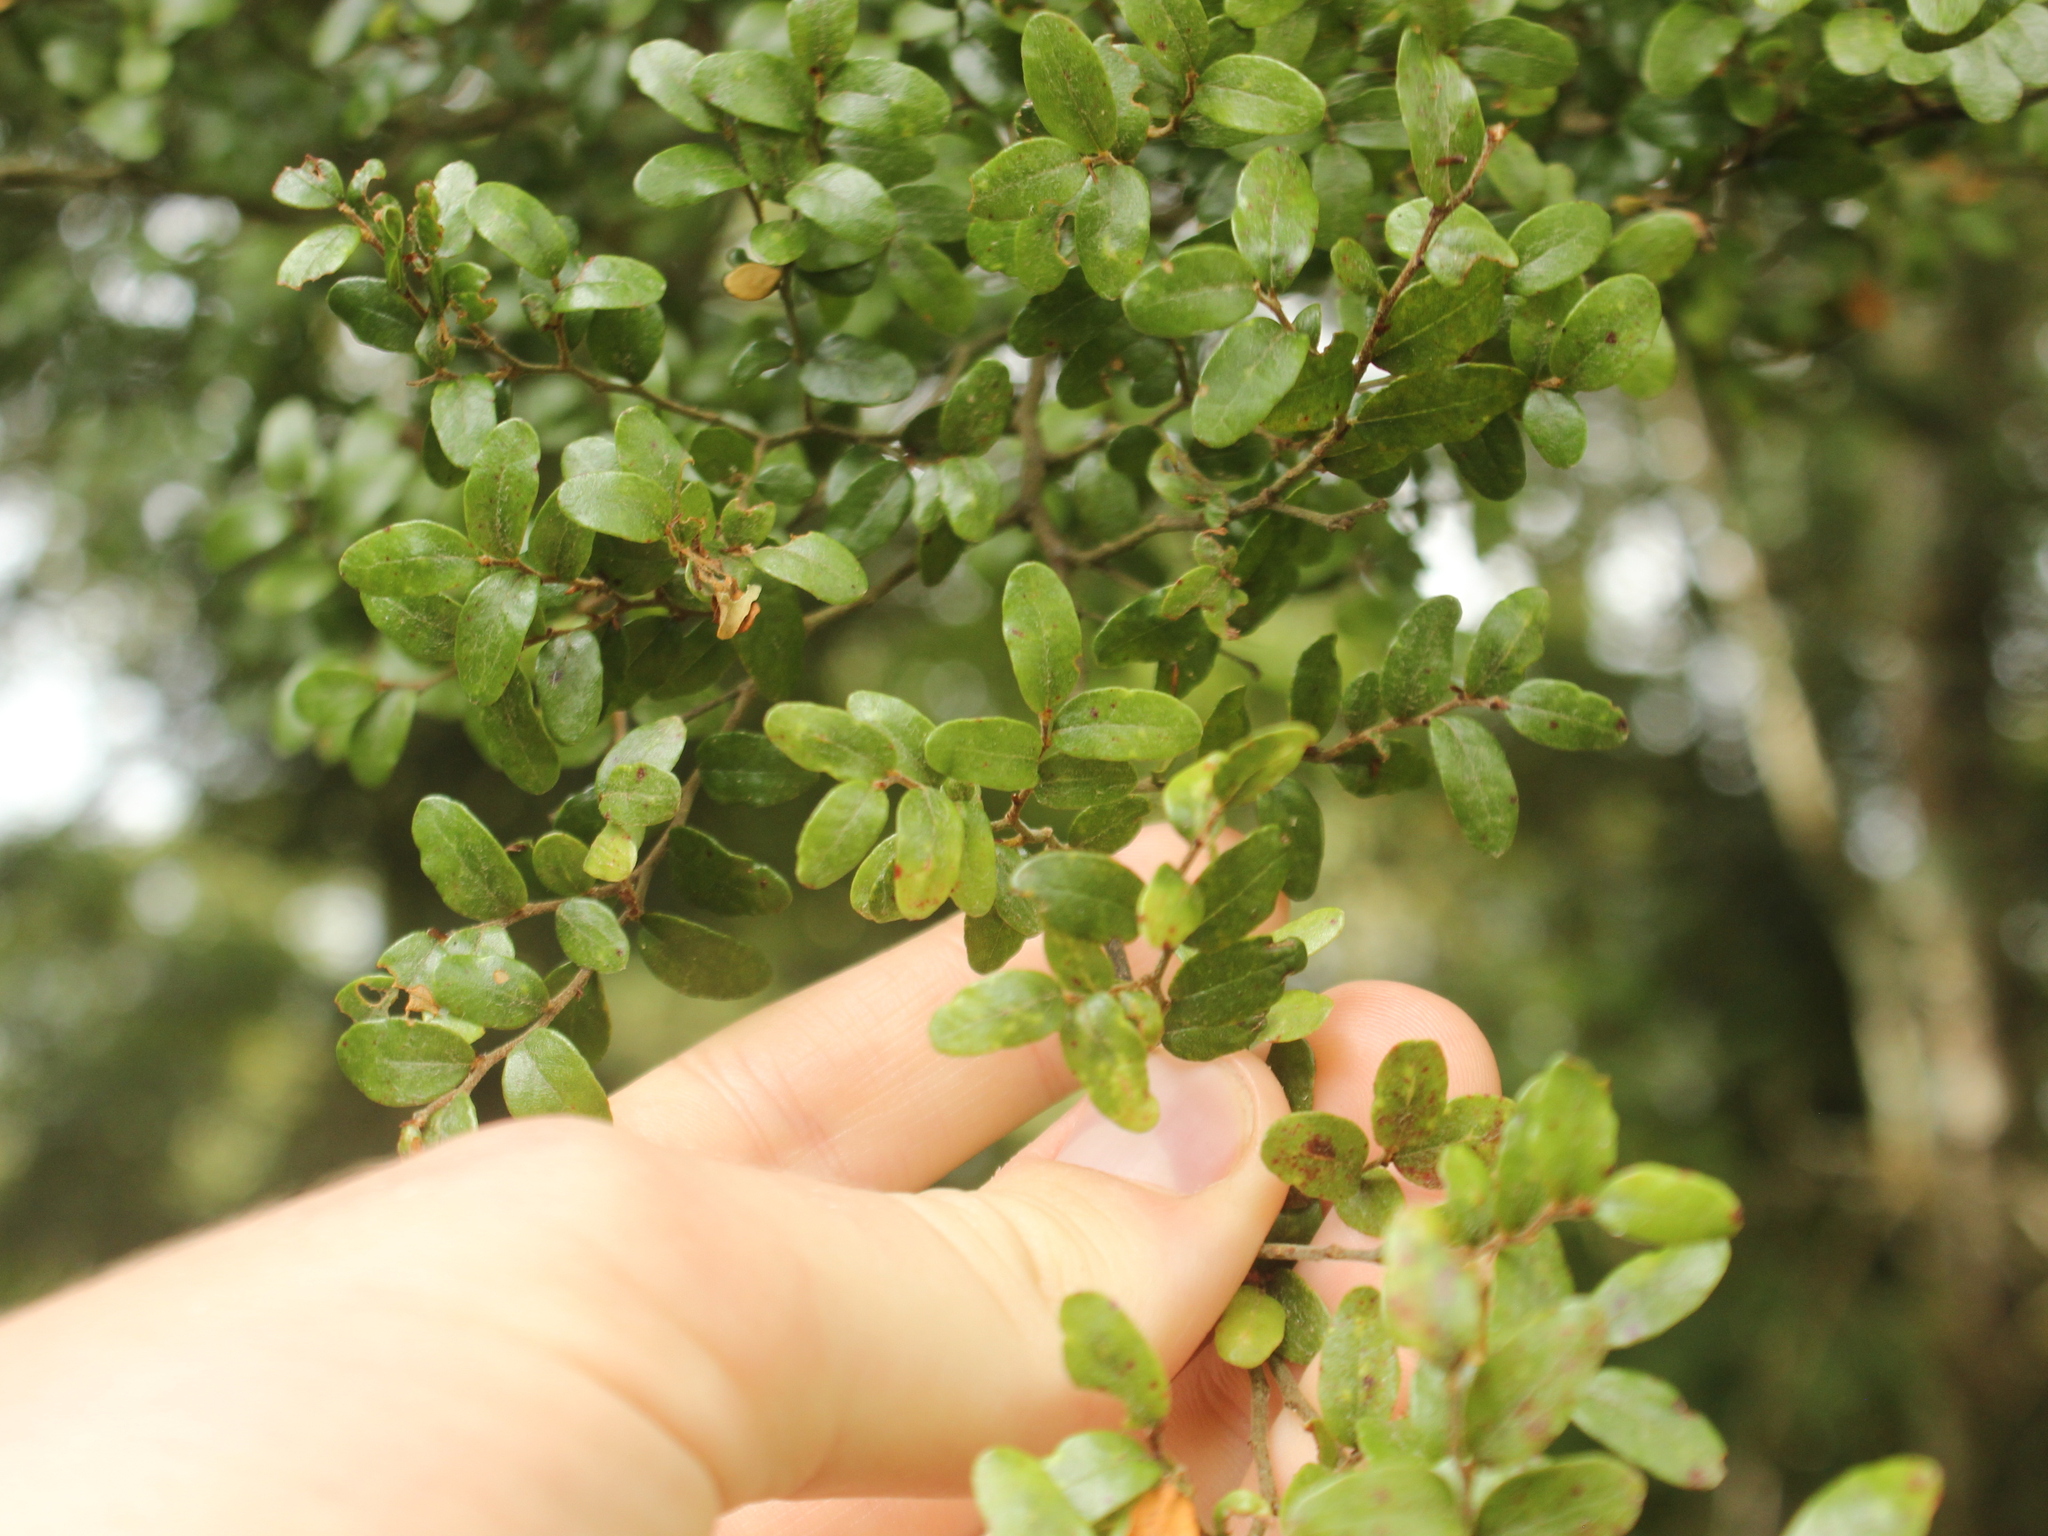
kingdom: Plantae
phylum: Tracheophyta
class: Magnoliopsida
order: Fagales
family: Nothofagaceae
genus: Nothofagus
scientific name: Nothofagus cliffortioides
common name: Mountain beech
